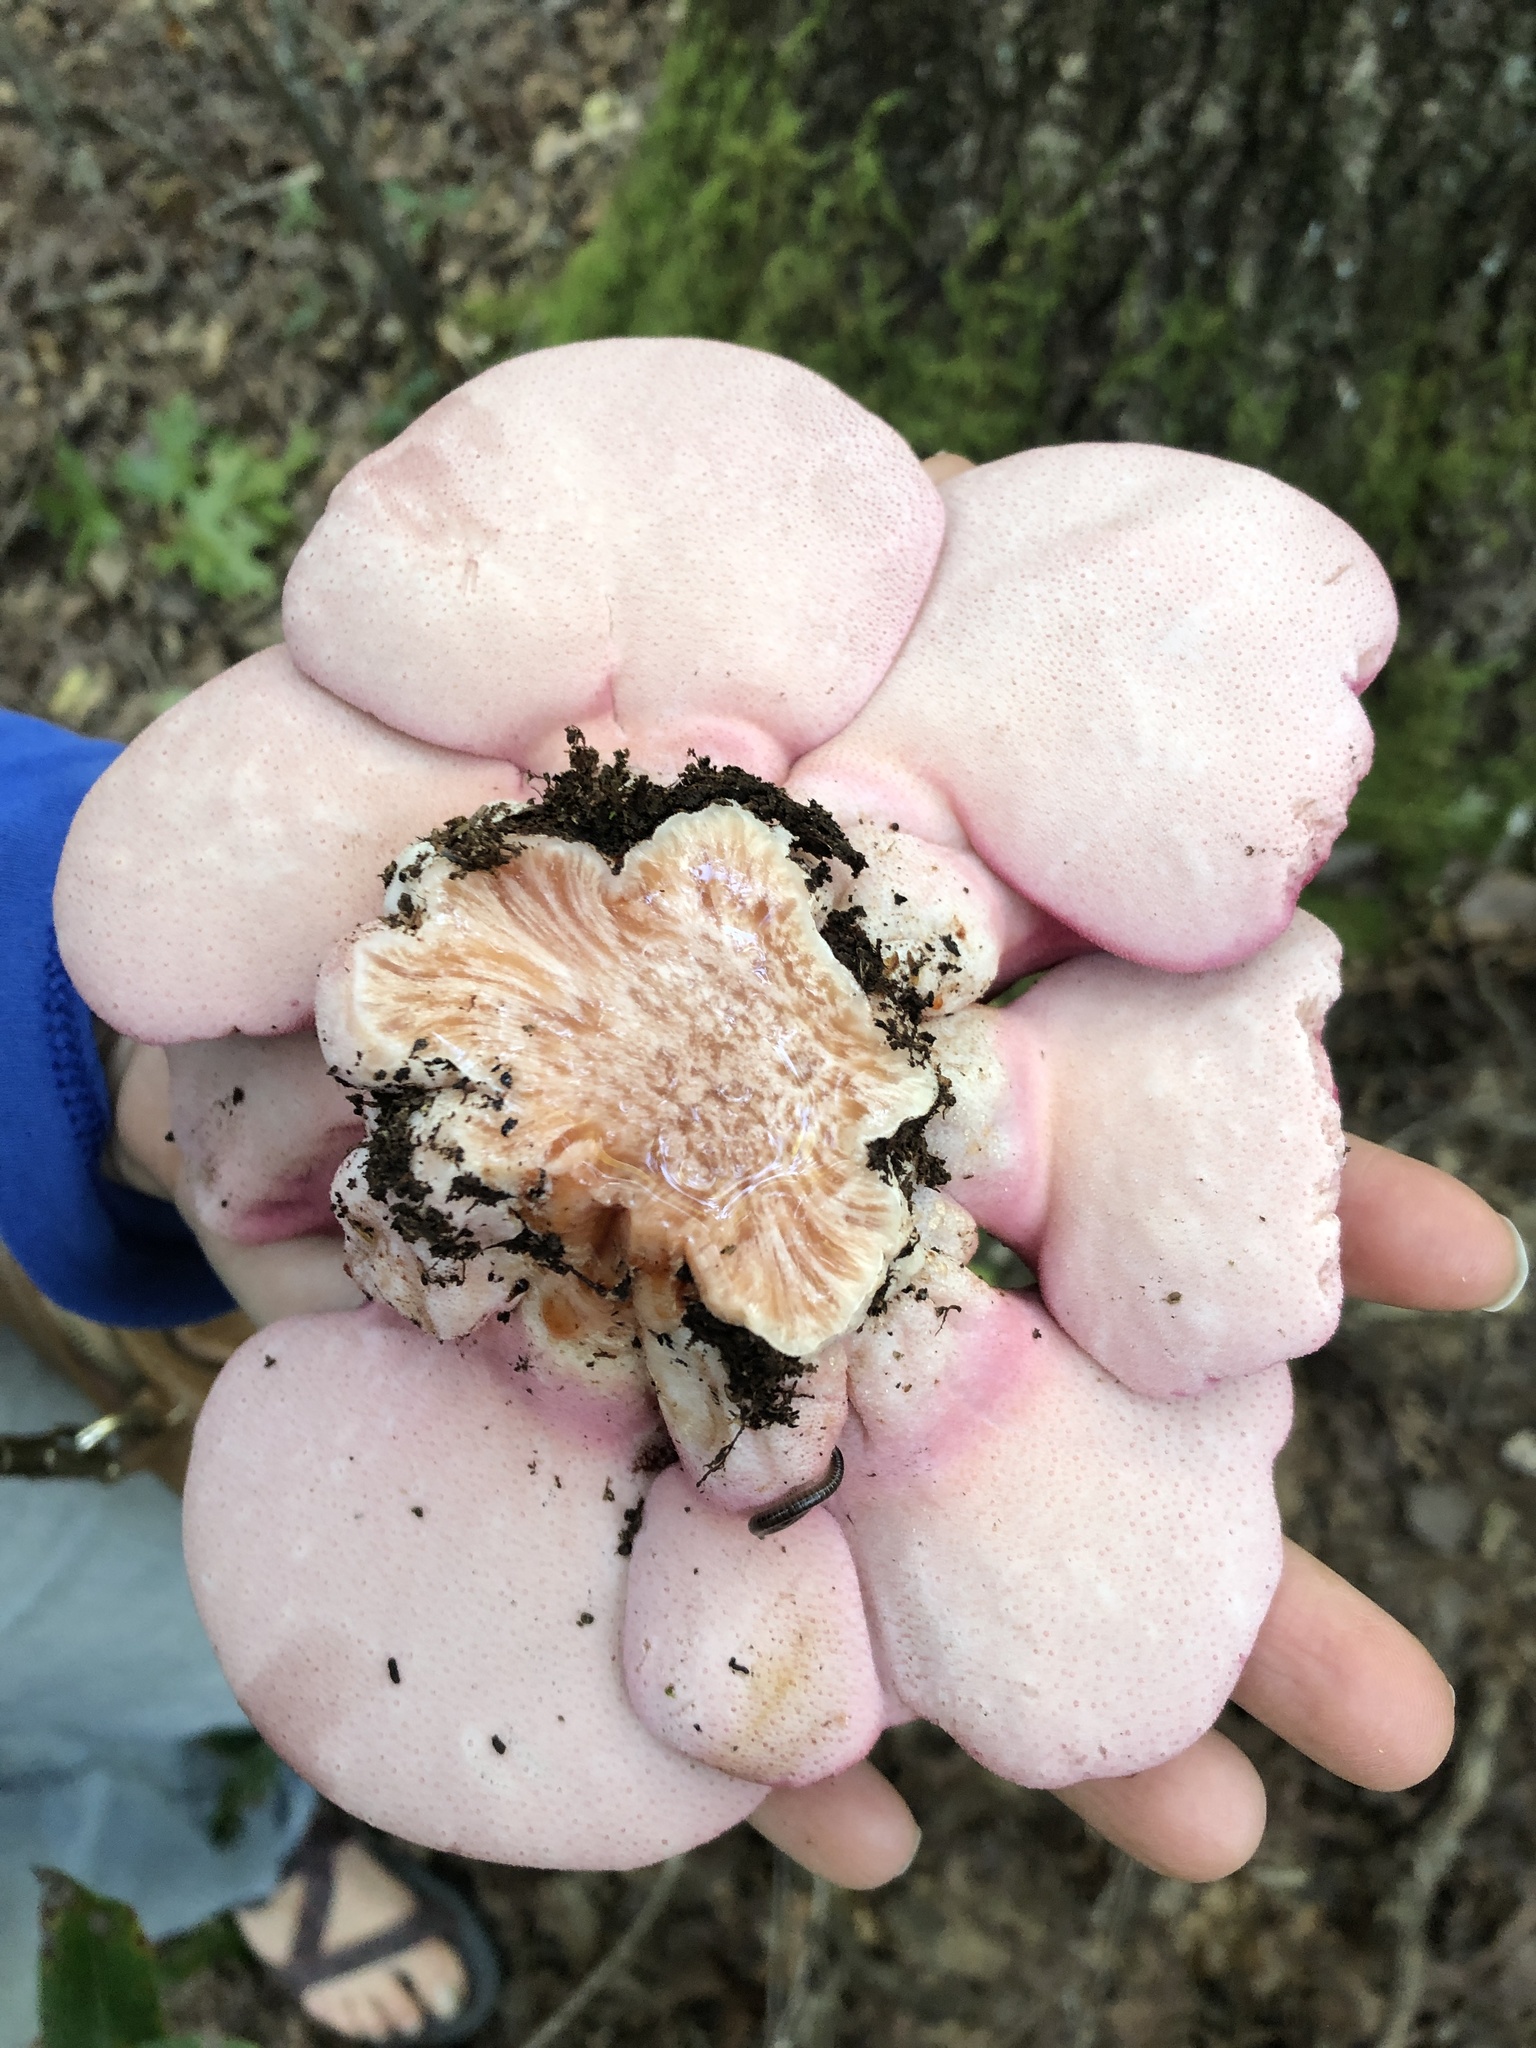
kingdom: Fungi
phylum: Basidiomycota
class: Agaricomycetes
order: Agaricales
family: Fistulinaceae
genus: Fistulina
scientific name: Fistulina hepatica
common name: Beef-steak fungus
